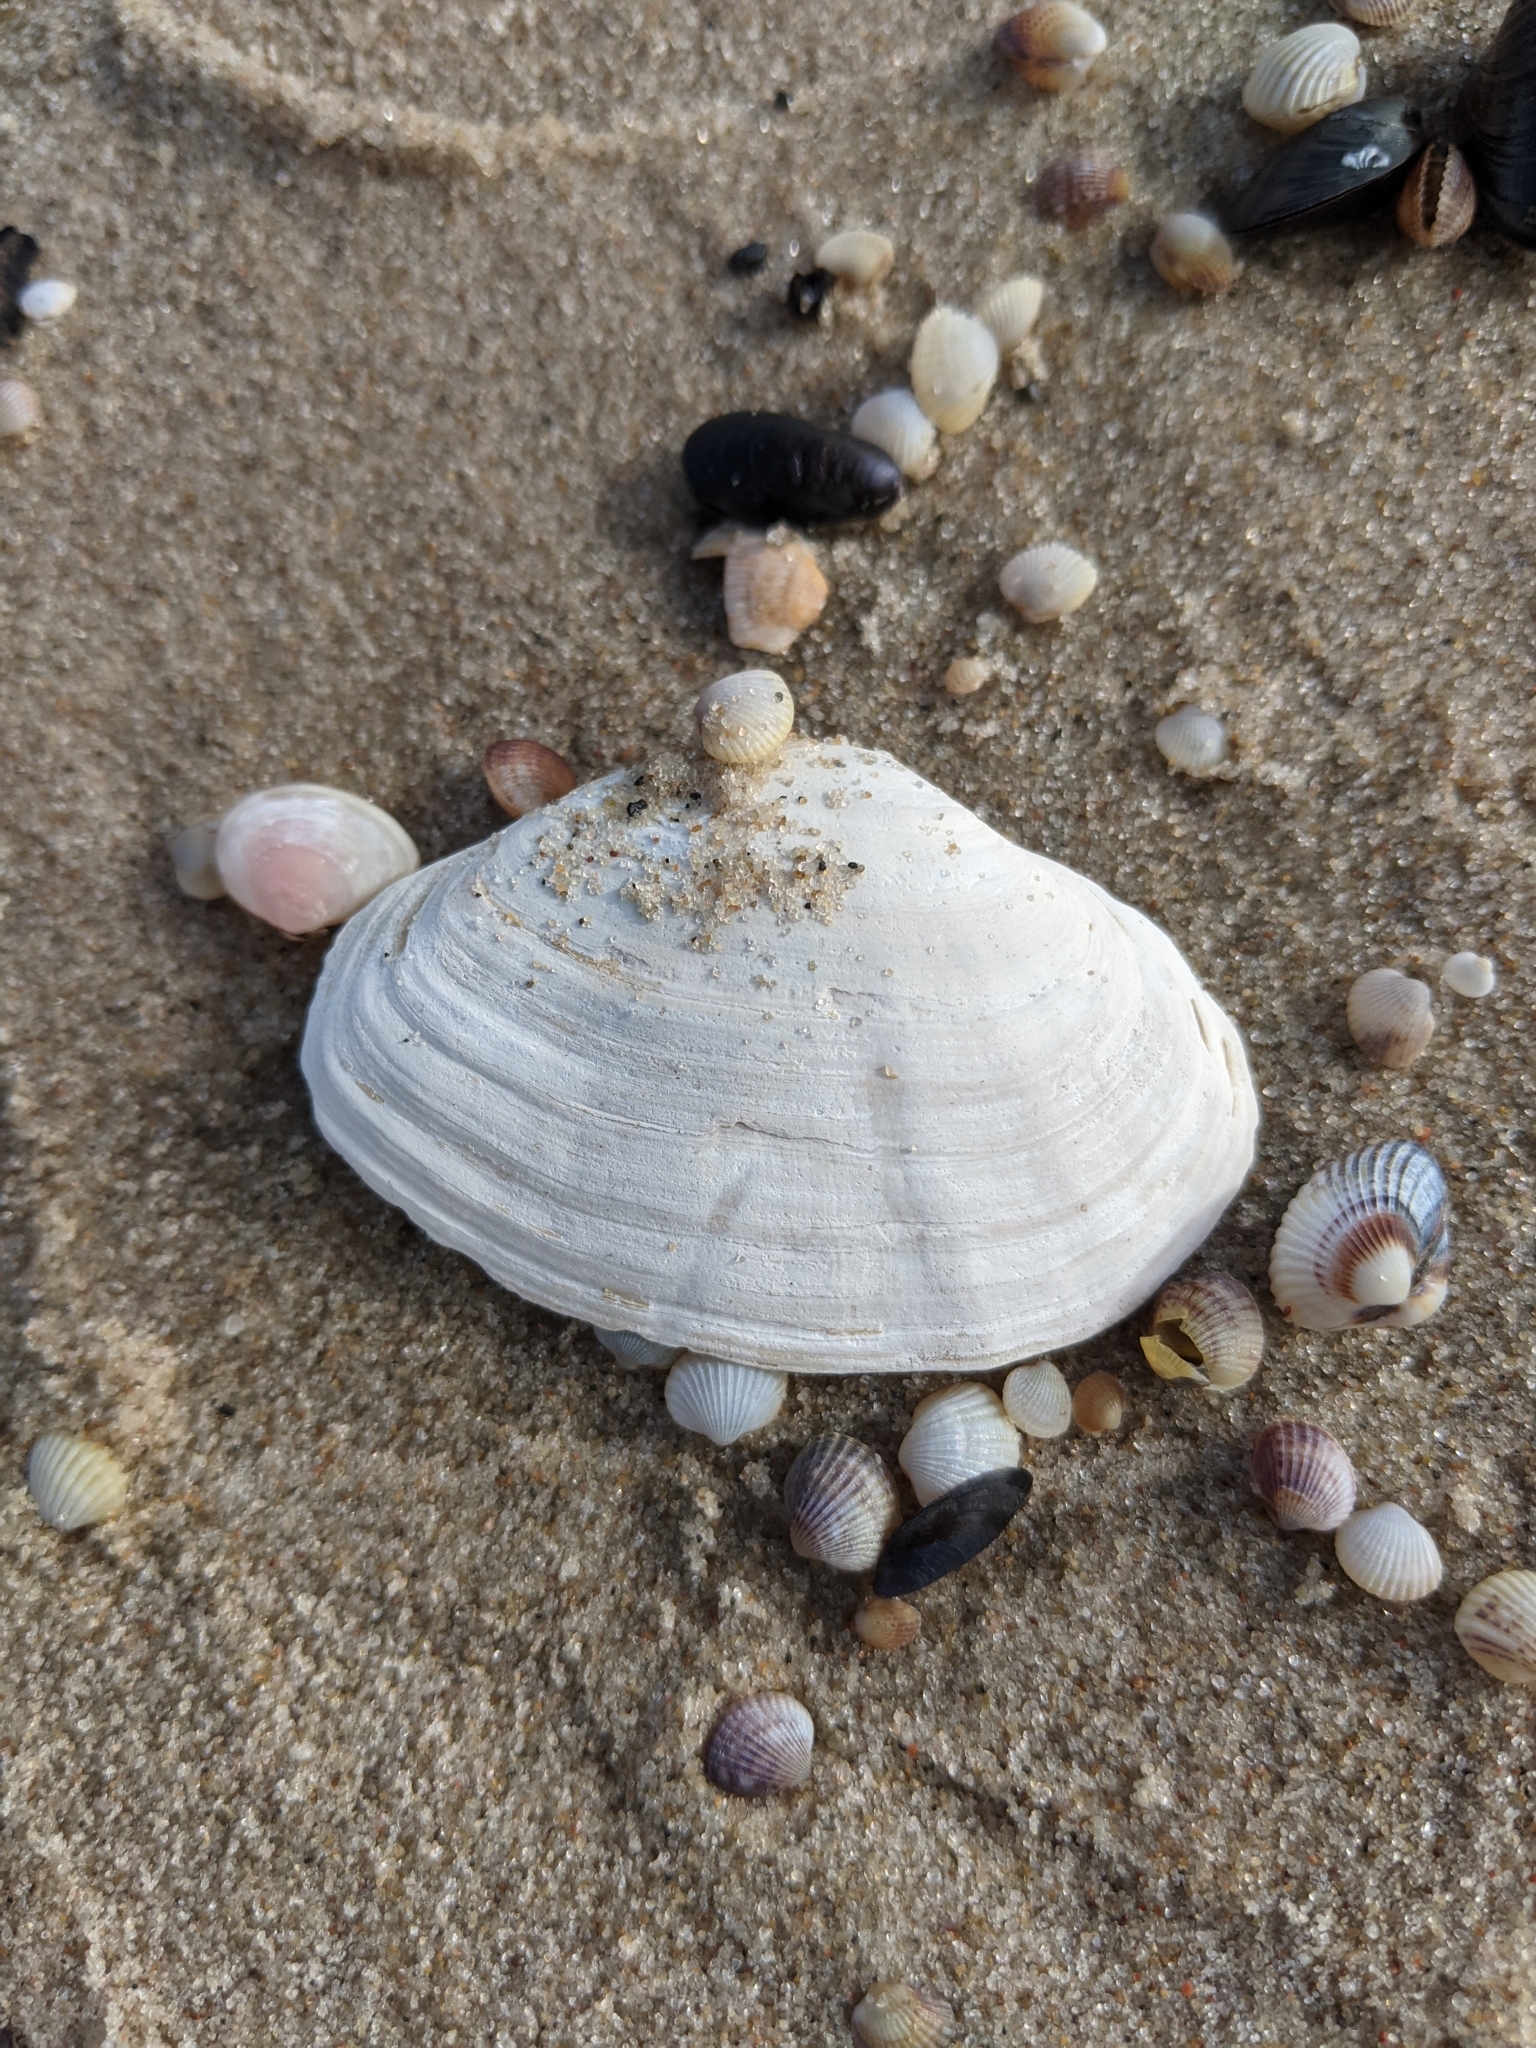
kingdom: Animalia
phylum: Mollusca
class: Bivalvia
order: Myida
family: Myidae
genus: Mya
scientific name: Mya arenaria
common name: Soft-shelled clam
